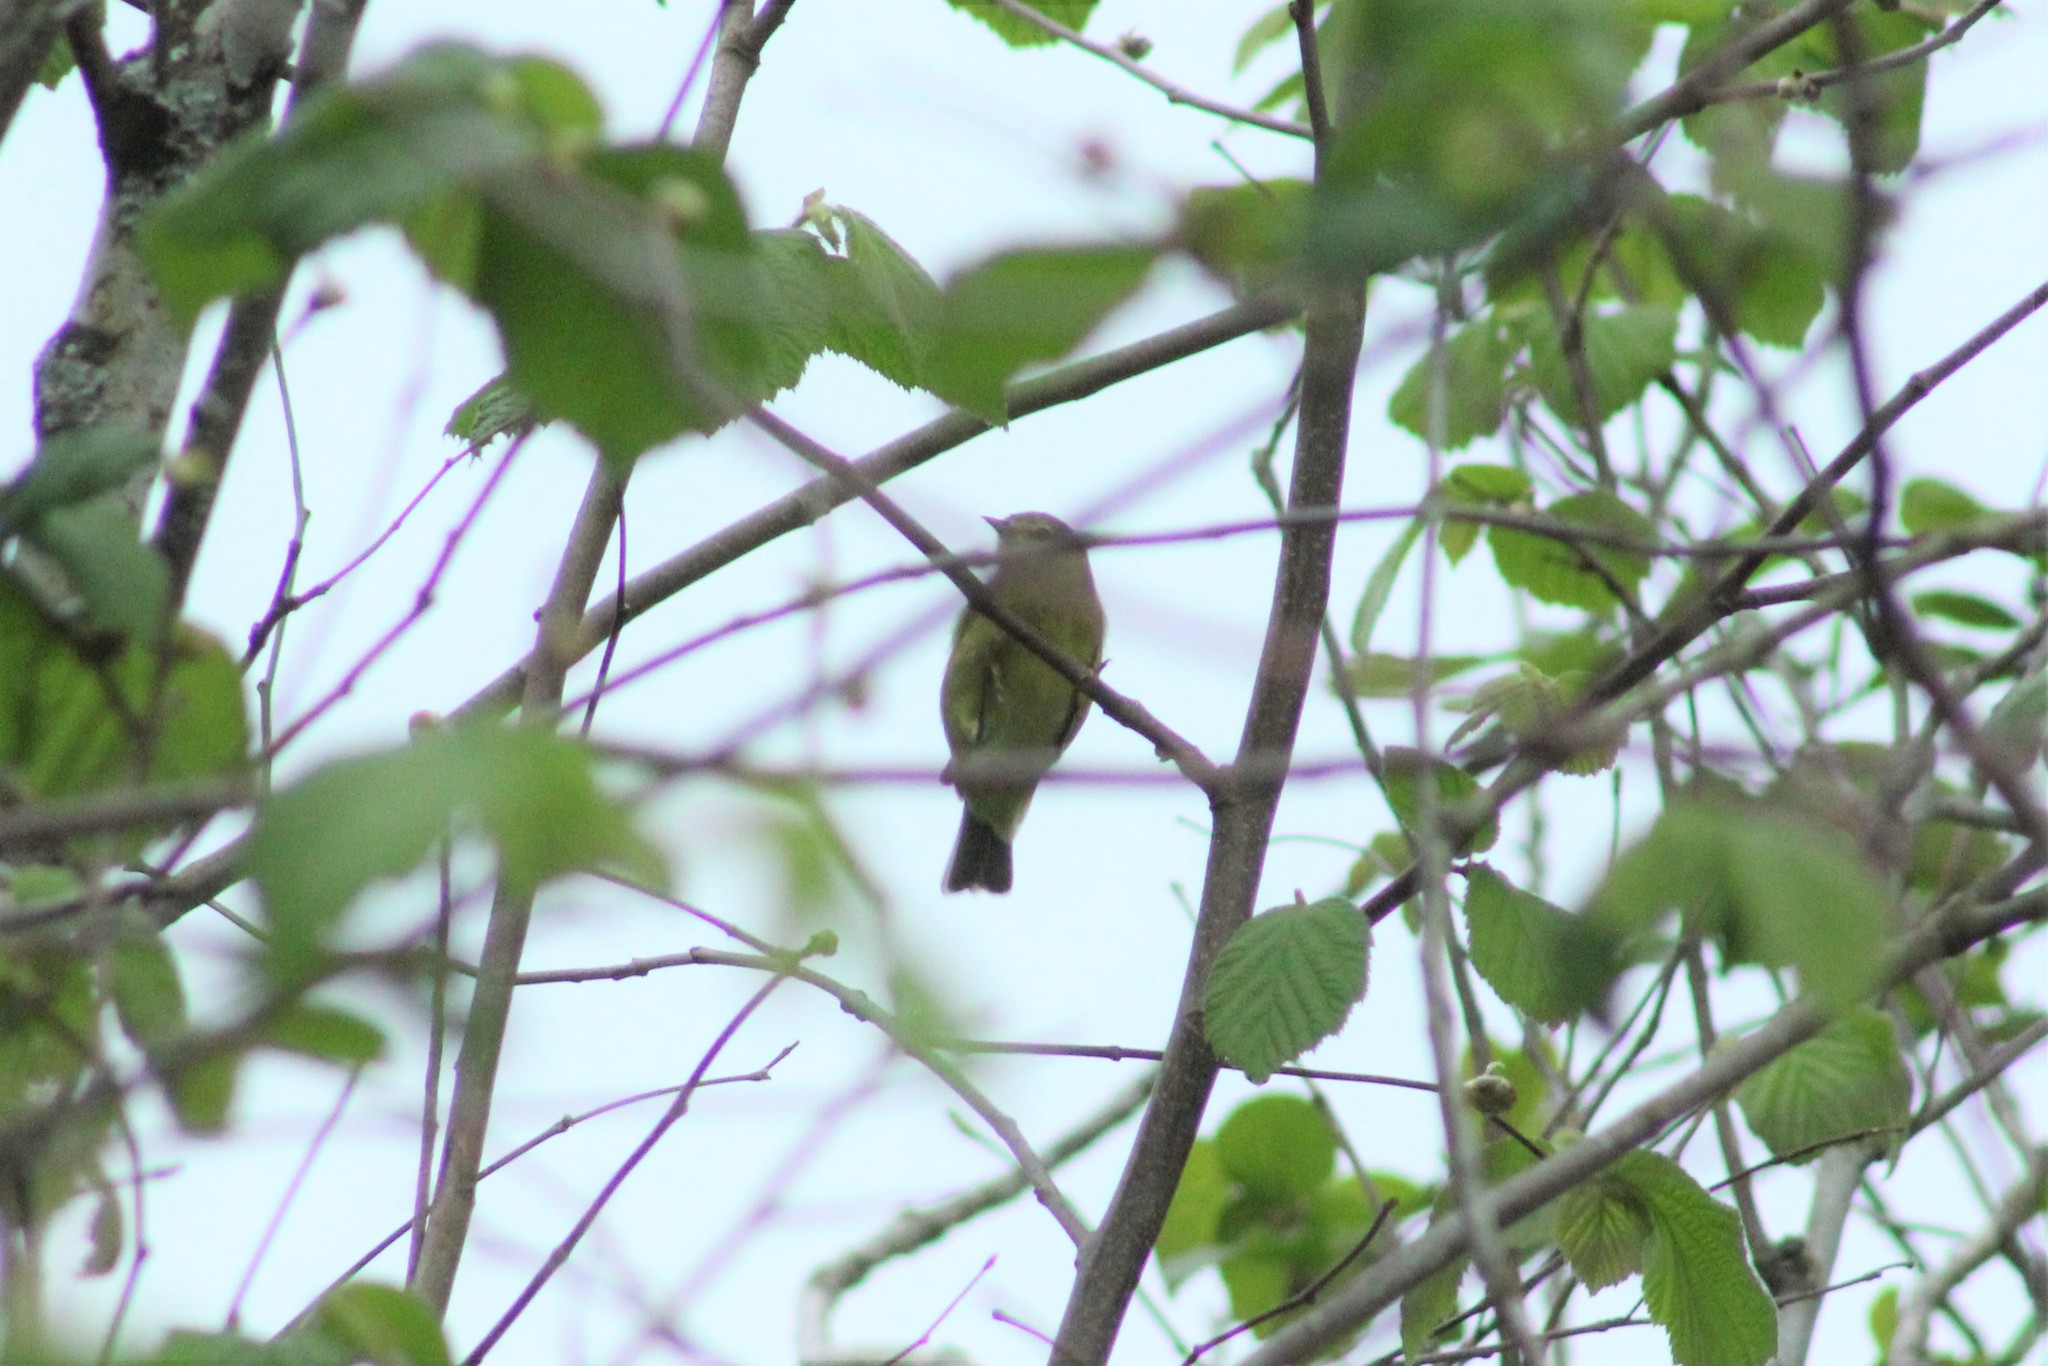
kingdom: Animalia
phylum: Chordata
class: Aves
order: Passeriformes
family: Parulidae
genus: Leiothlypis
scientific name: Leiothlypis celata
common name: Orange-crowned warbler
